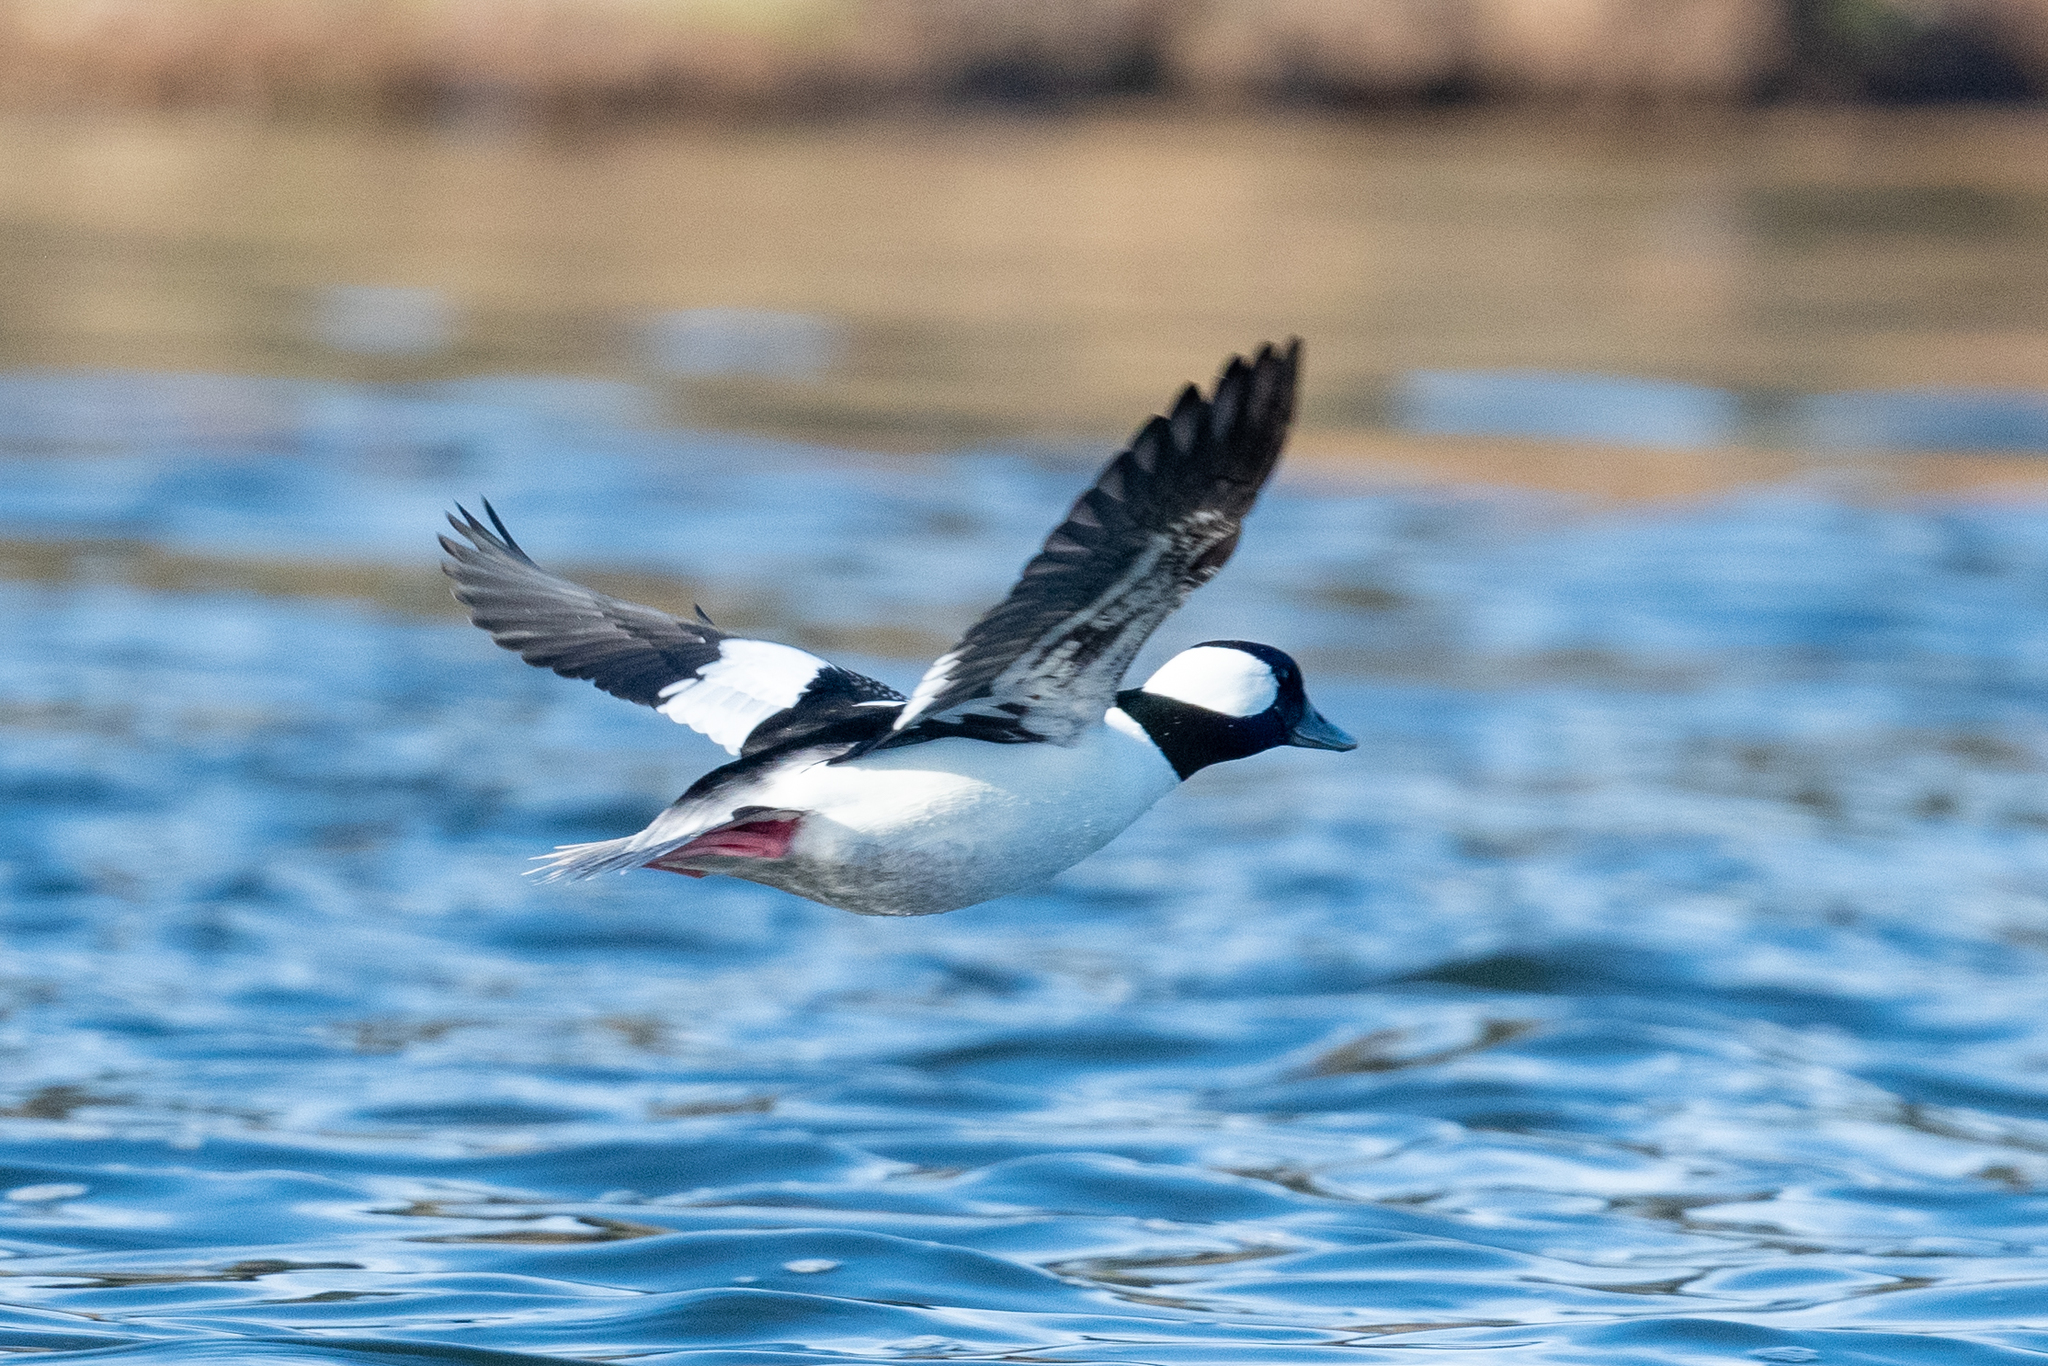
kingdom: Animalia
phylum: Chordata
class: Aves
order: Anseriformes
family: Anatidae
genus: Bucephala
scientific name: Bucephala albeola
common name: Bufflehead
